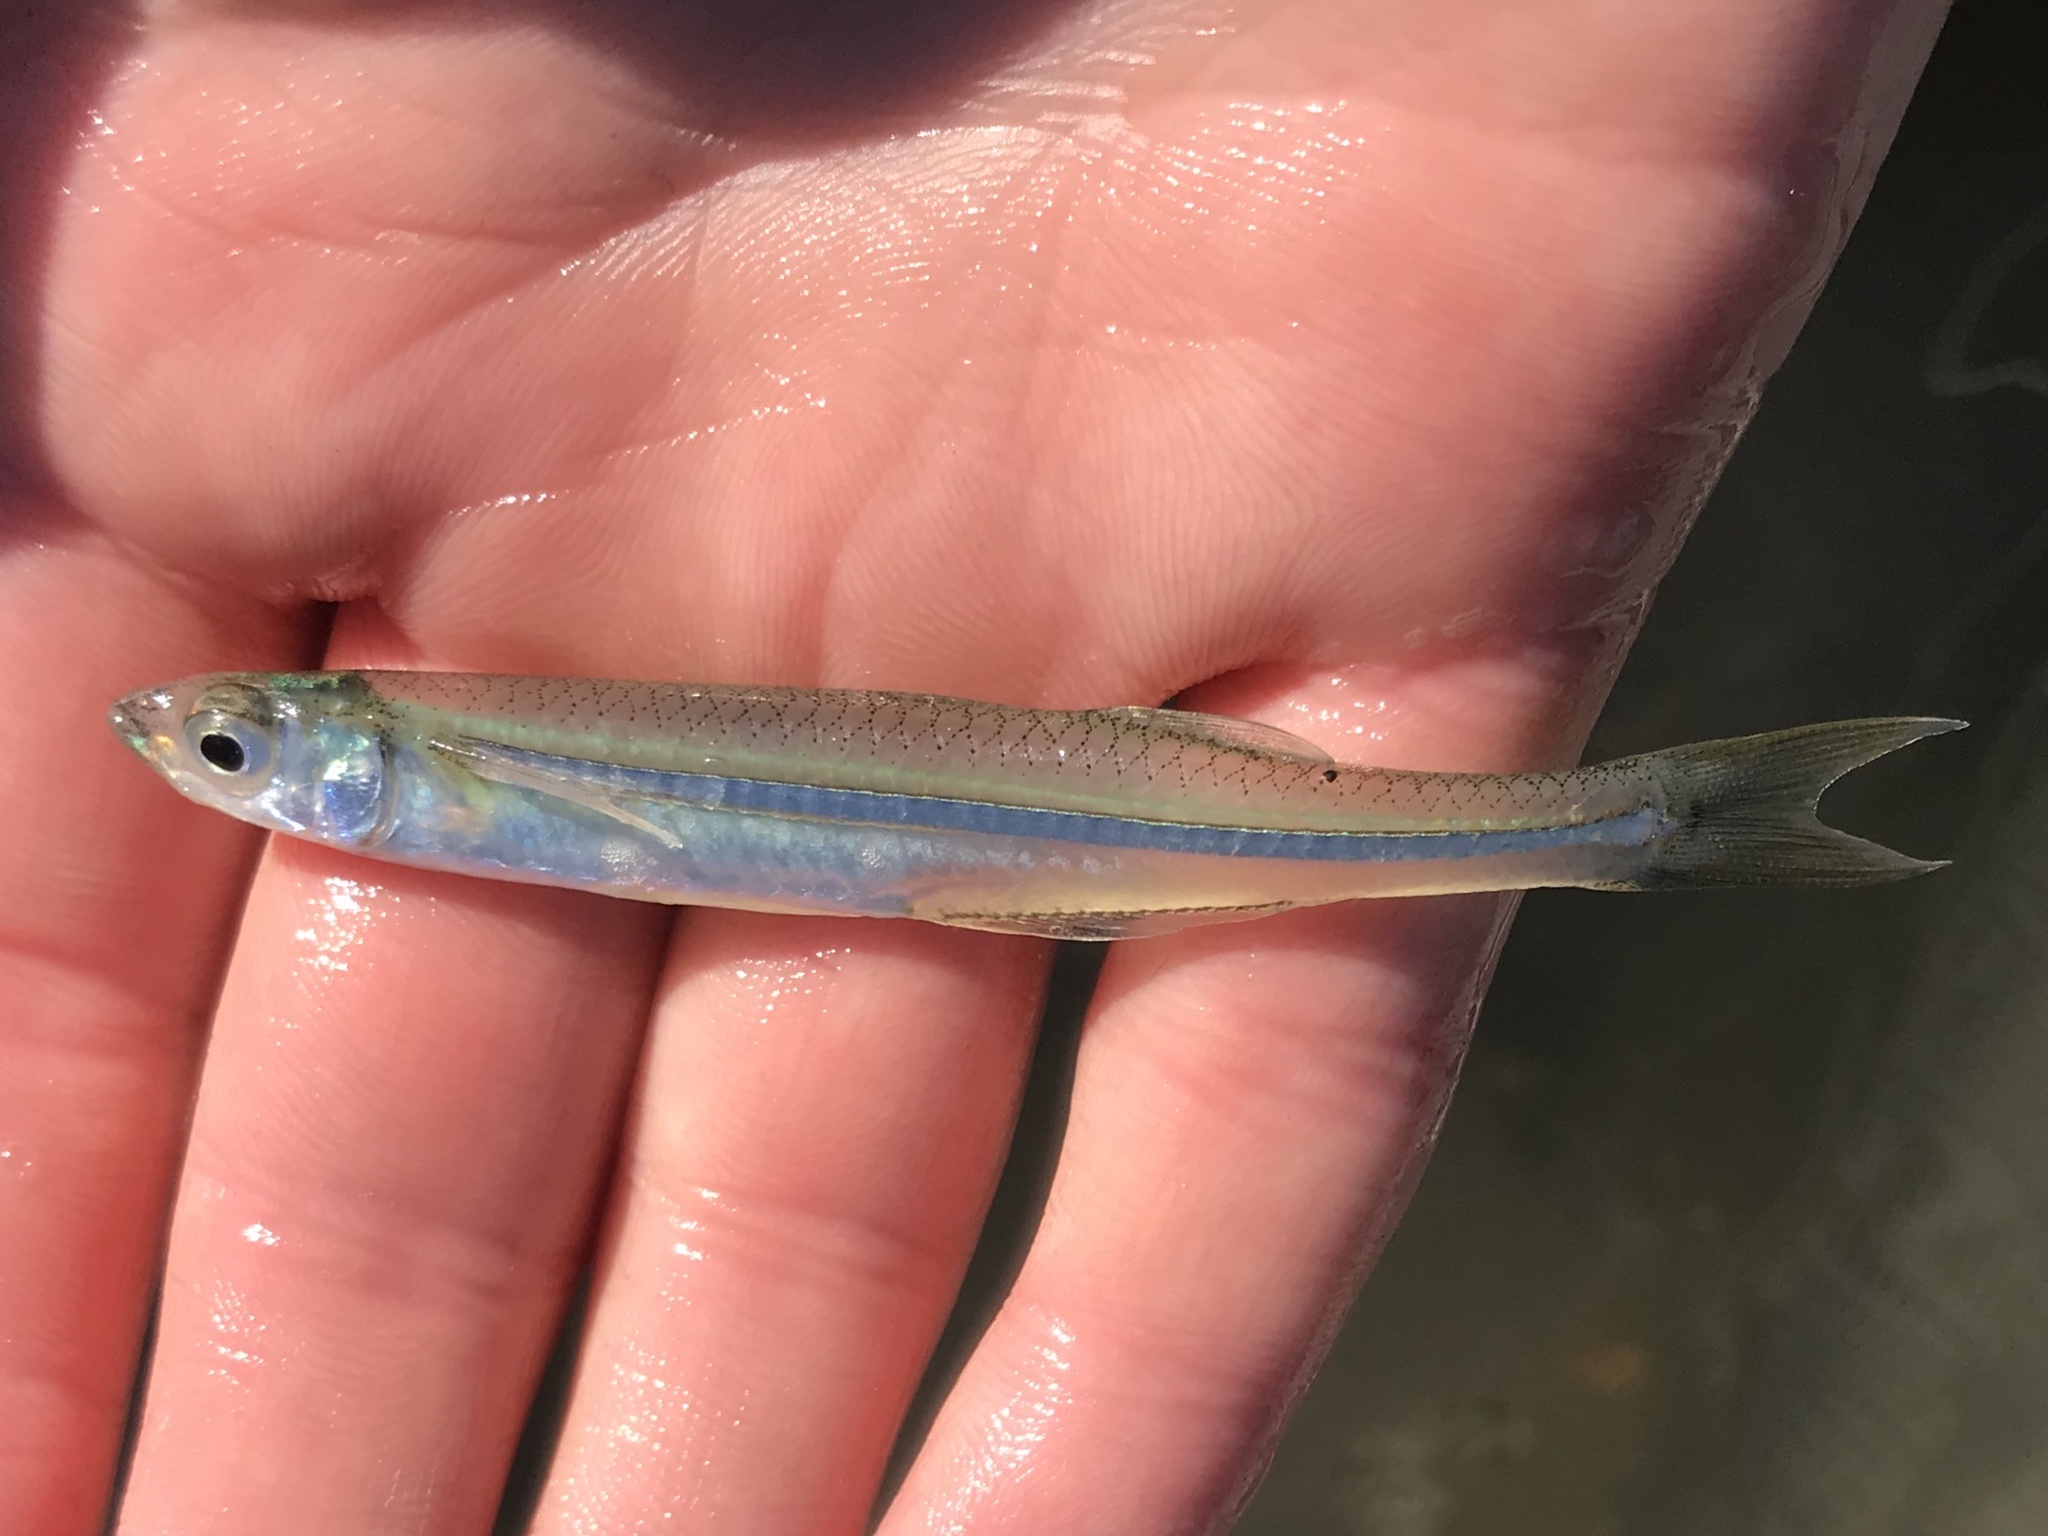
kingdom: Animalia
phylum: Chordata
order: Atheriniformes
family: Atherinopsidae
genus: Menidia
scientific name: Menidia beryllina
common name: Inland silverside
